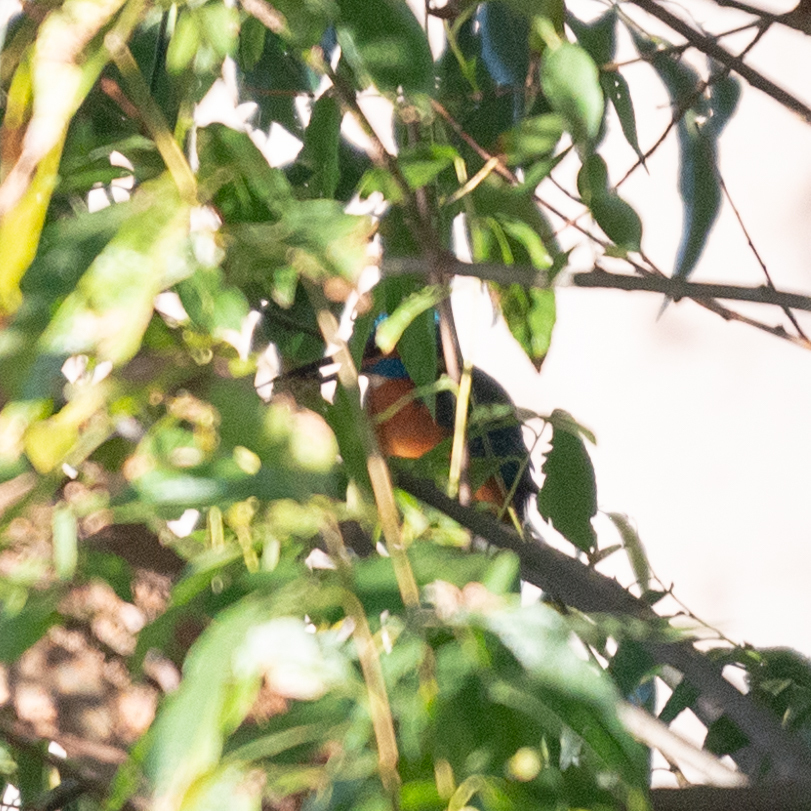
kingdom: Animalia
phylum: Chordata
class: Aves
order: Coraciiformes
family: Alcedinidae
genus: Alcedo
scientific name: Alcedo atthis
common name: Common kingfisher
